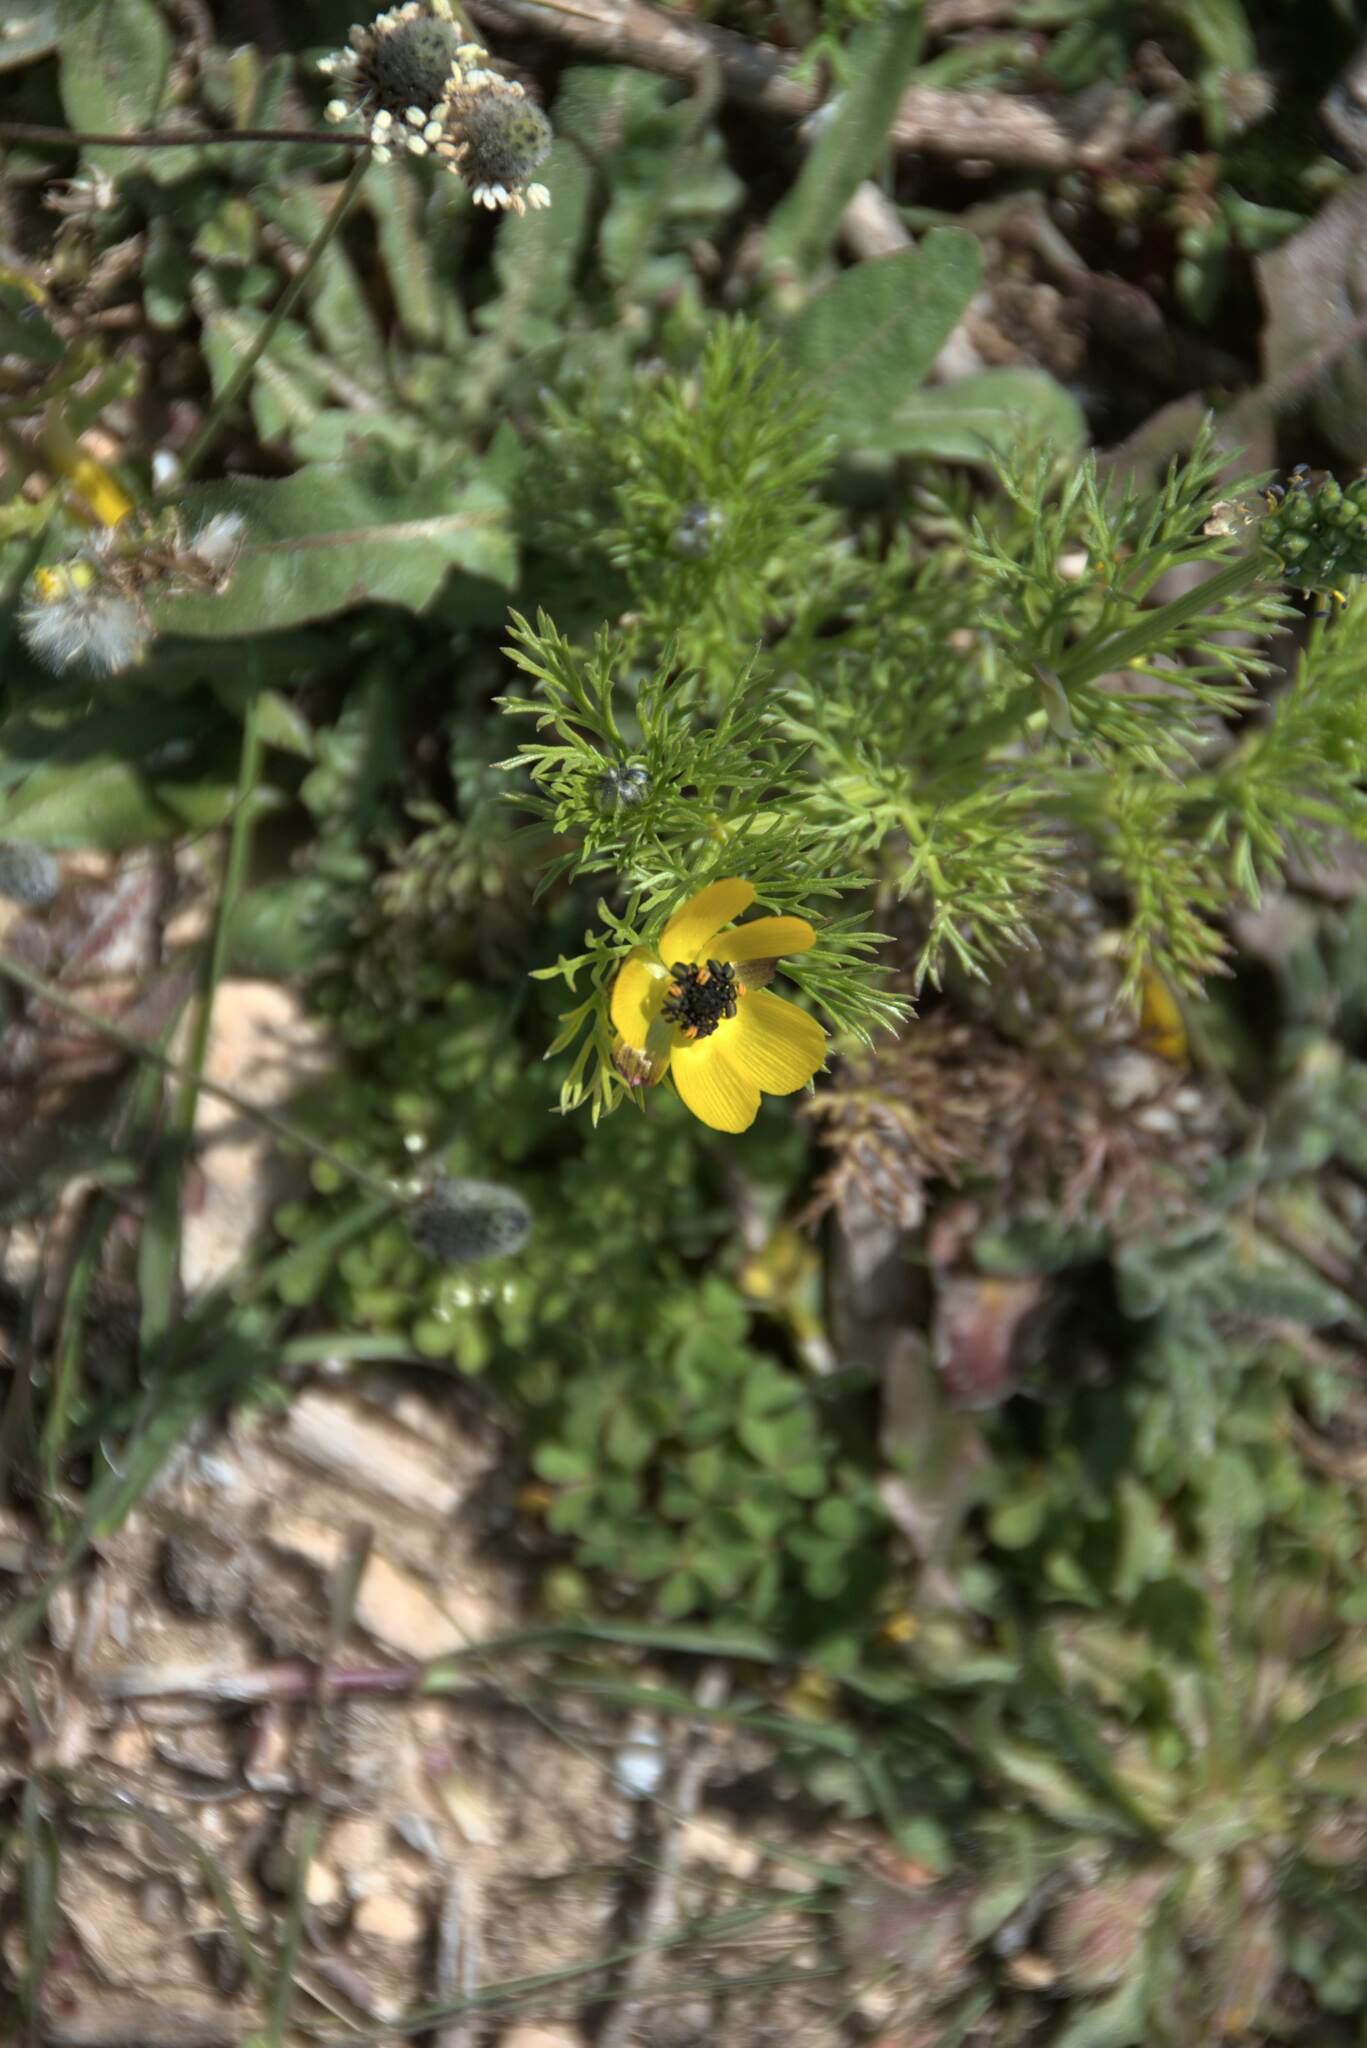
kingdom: Plantae
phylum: Tracheophyta
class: Magnoliopsida
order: Ranunculales
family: Ranunculaceae
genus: Adonis
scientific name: Adonis cretica
